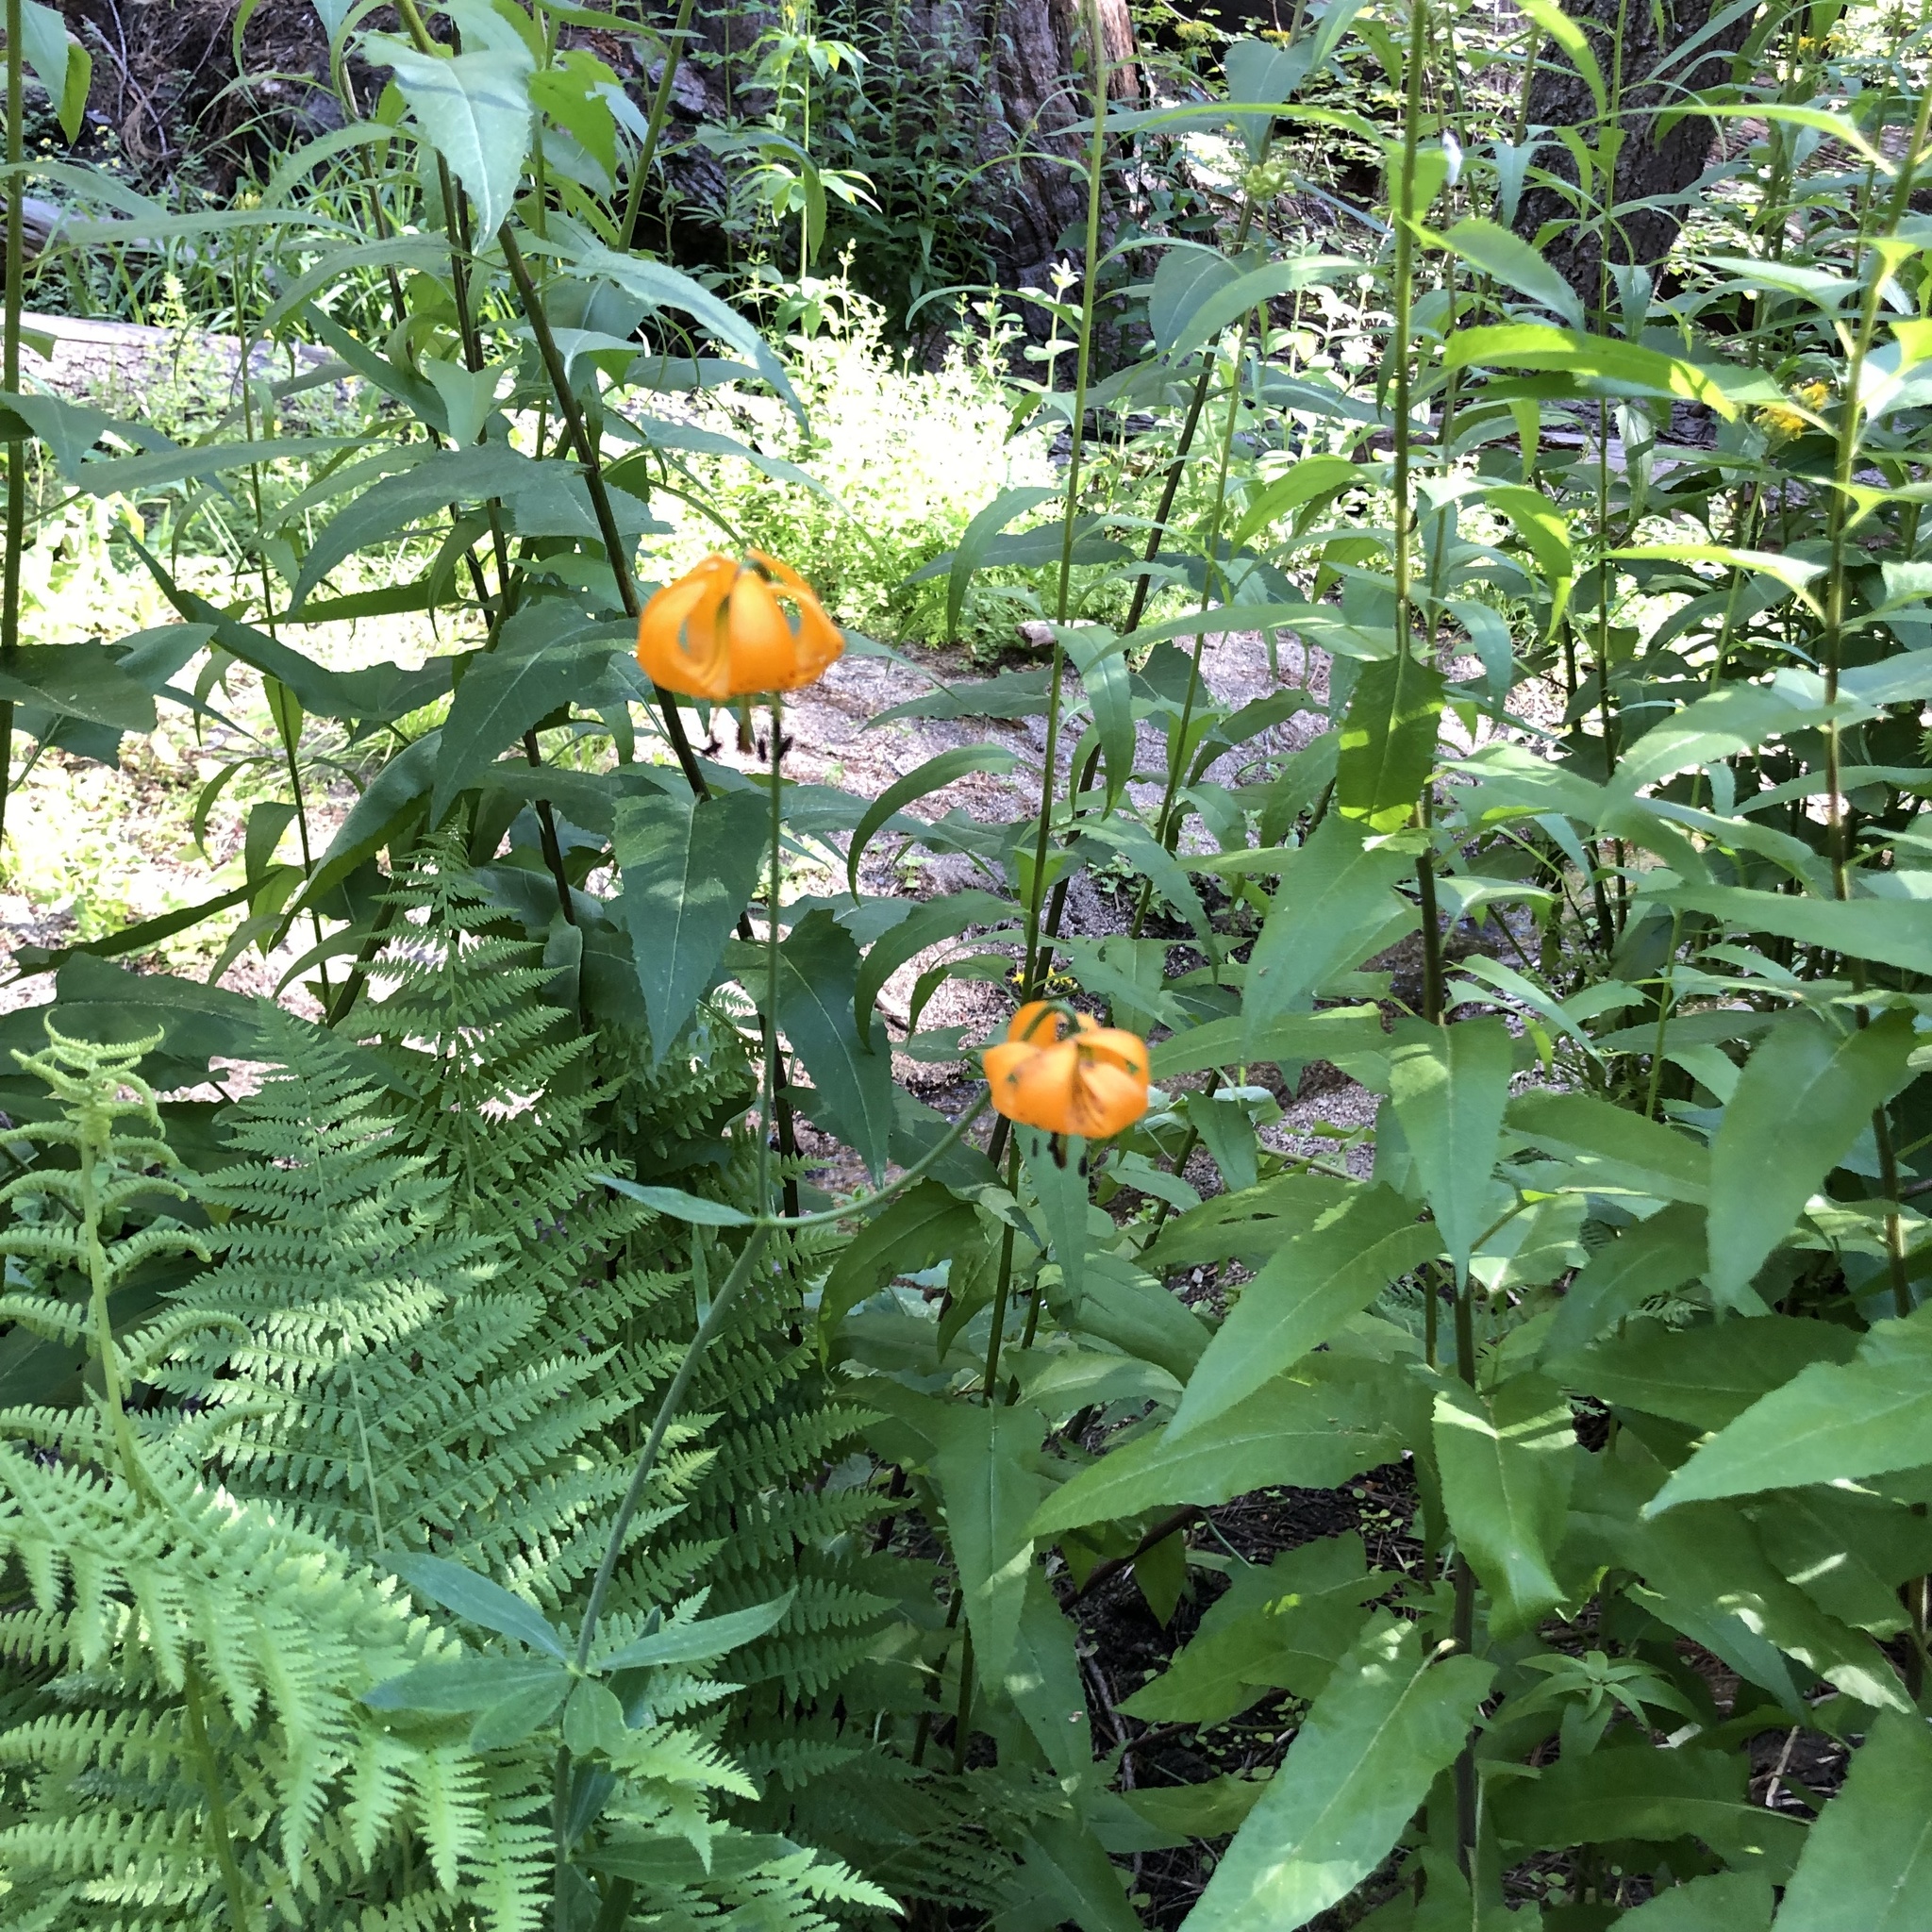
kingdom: Plantae
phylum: Tracheophyta
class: Liliopsida
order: Liliales
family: Liliaceae
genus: Lilium
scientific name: Lilium kelleyanum
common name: Kelley's lily
